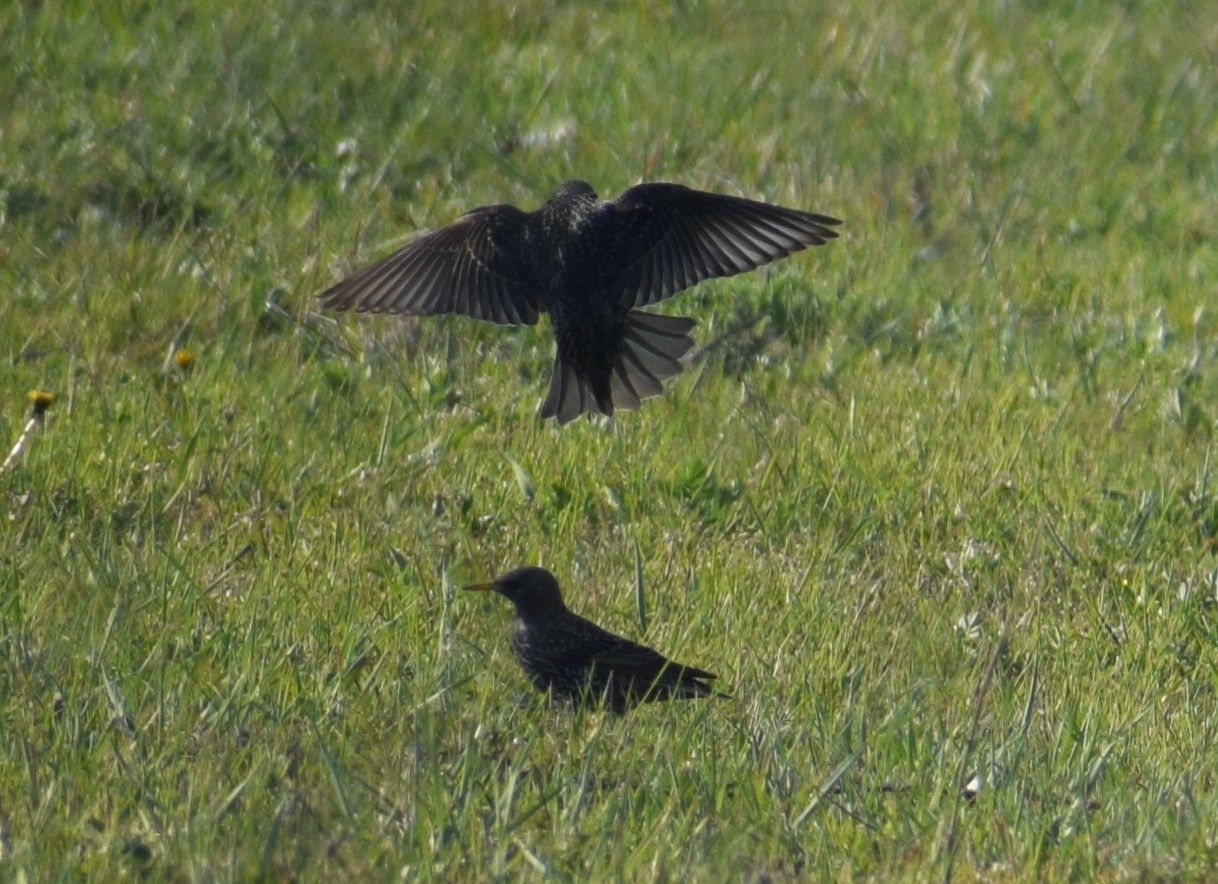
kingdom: Animalia
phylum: Chordata
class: Aves
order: Passeriformes
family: Sturnidae
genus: Sturnus
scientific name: Sturnus vulgaris
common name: Common starling
